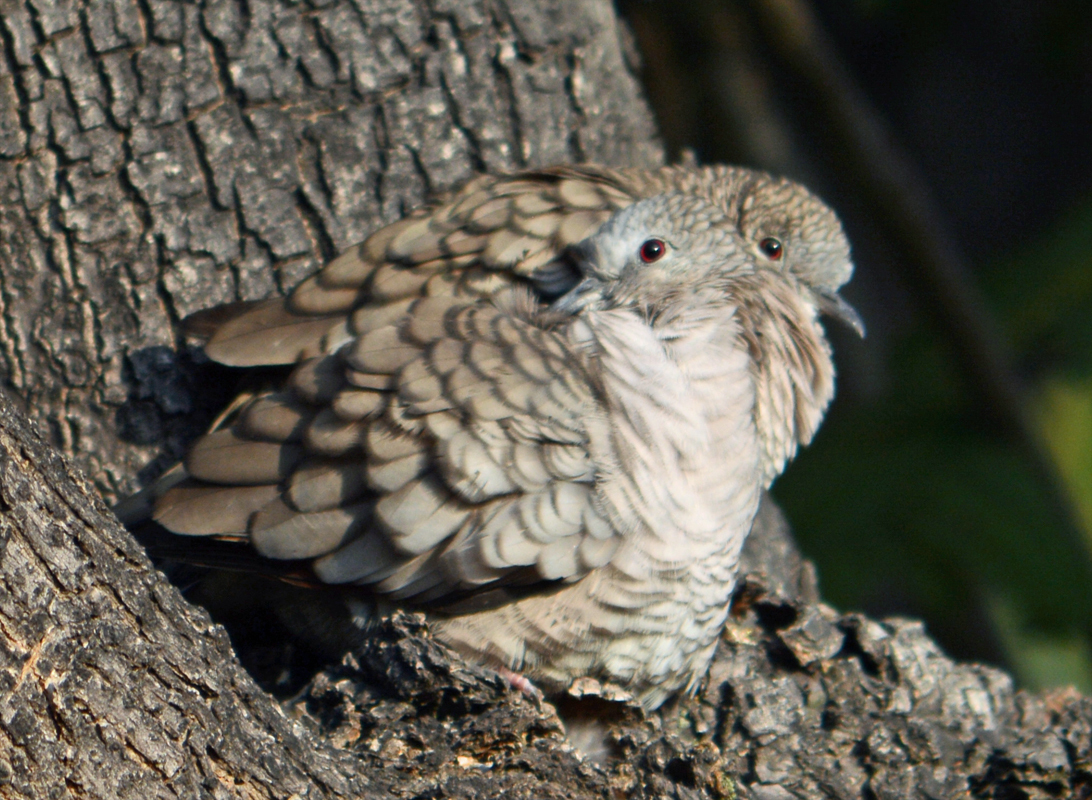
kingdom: Animalia
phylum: Chordata
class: Aves
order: Columbiformes
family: Columbidae
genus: Columbina
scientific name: Columbina inca
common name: Inca dove
